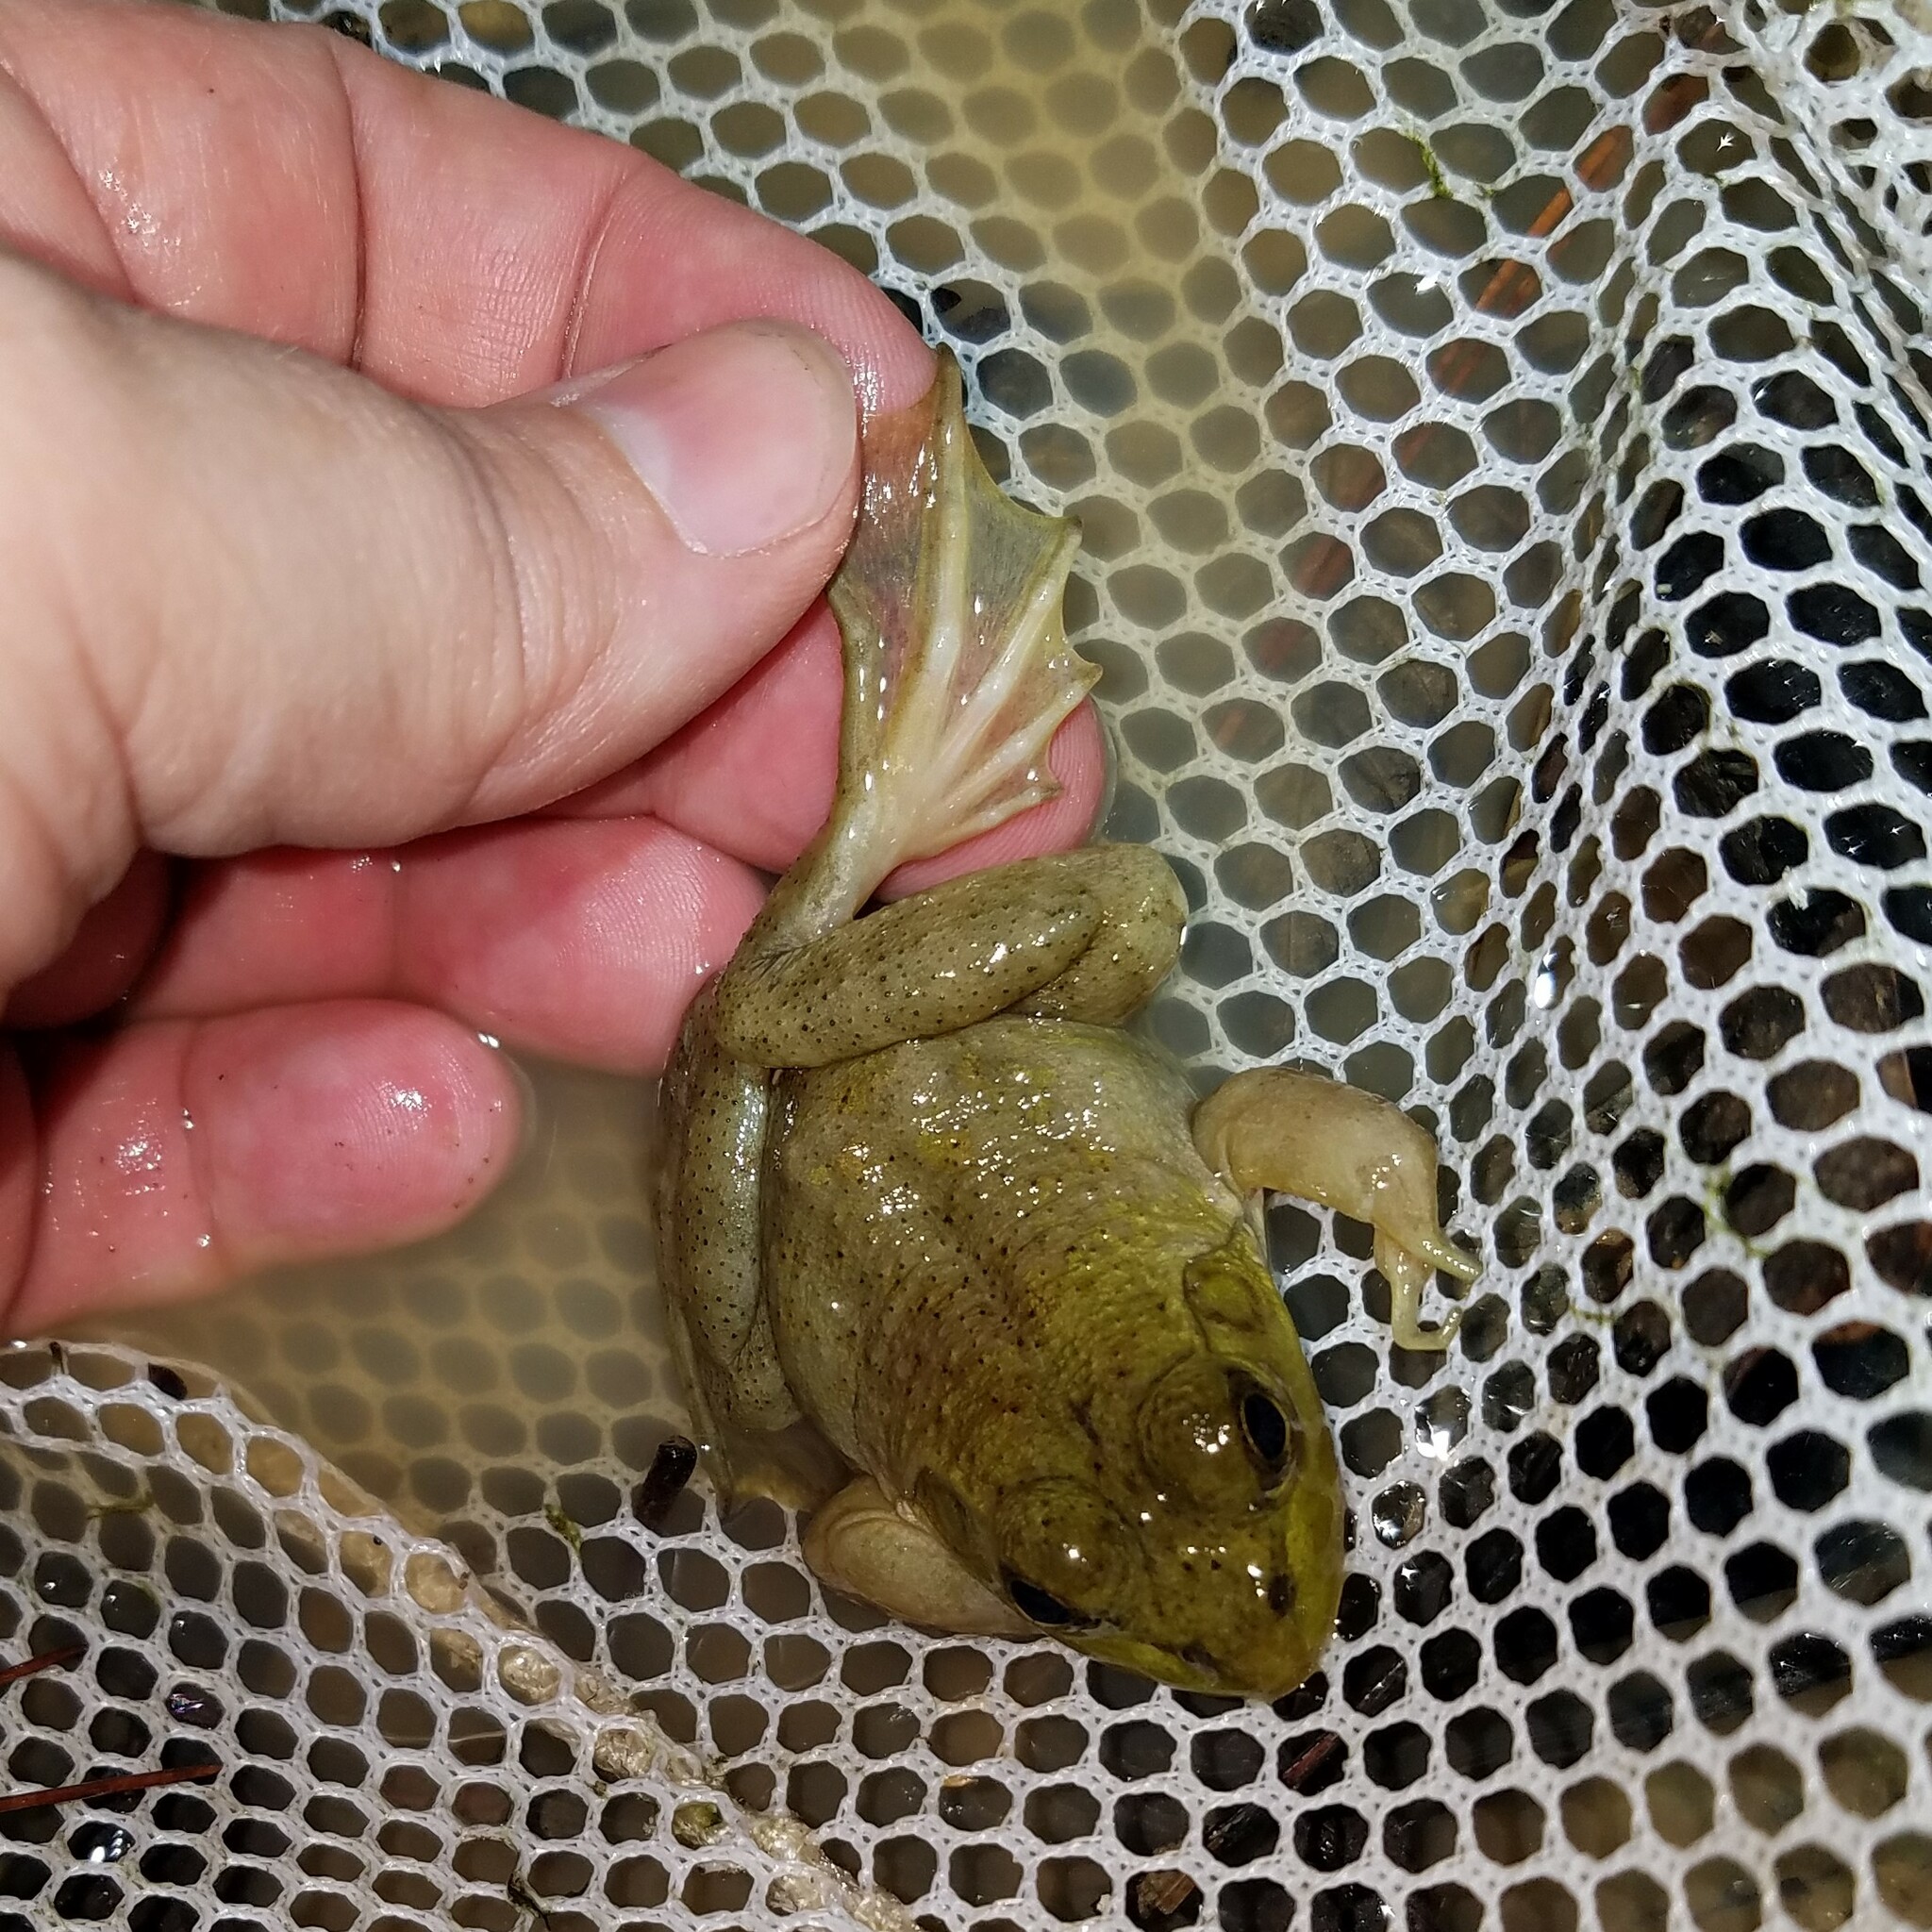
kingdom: Animalia
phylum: Chordata
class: Amphibia
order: Anura
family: Ranidae
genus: Lithobates
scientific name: Lithobates catesbeianus
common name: American bullfrog
